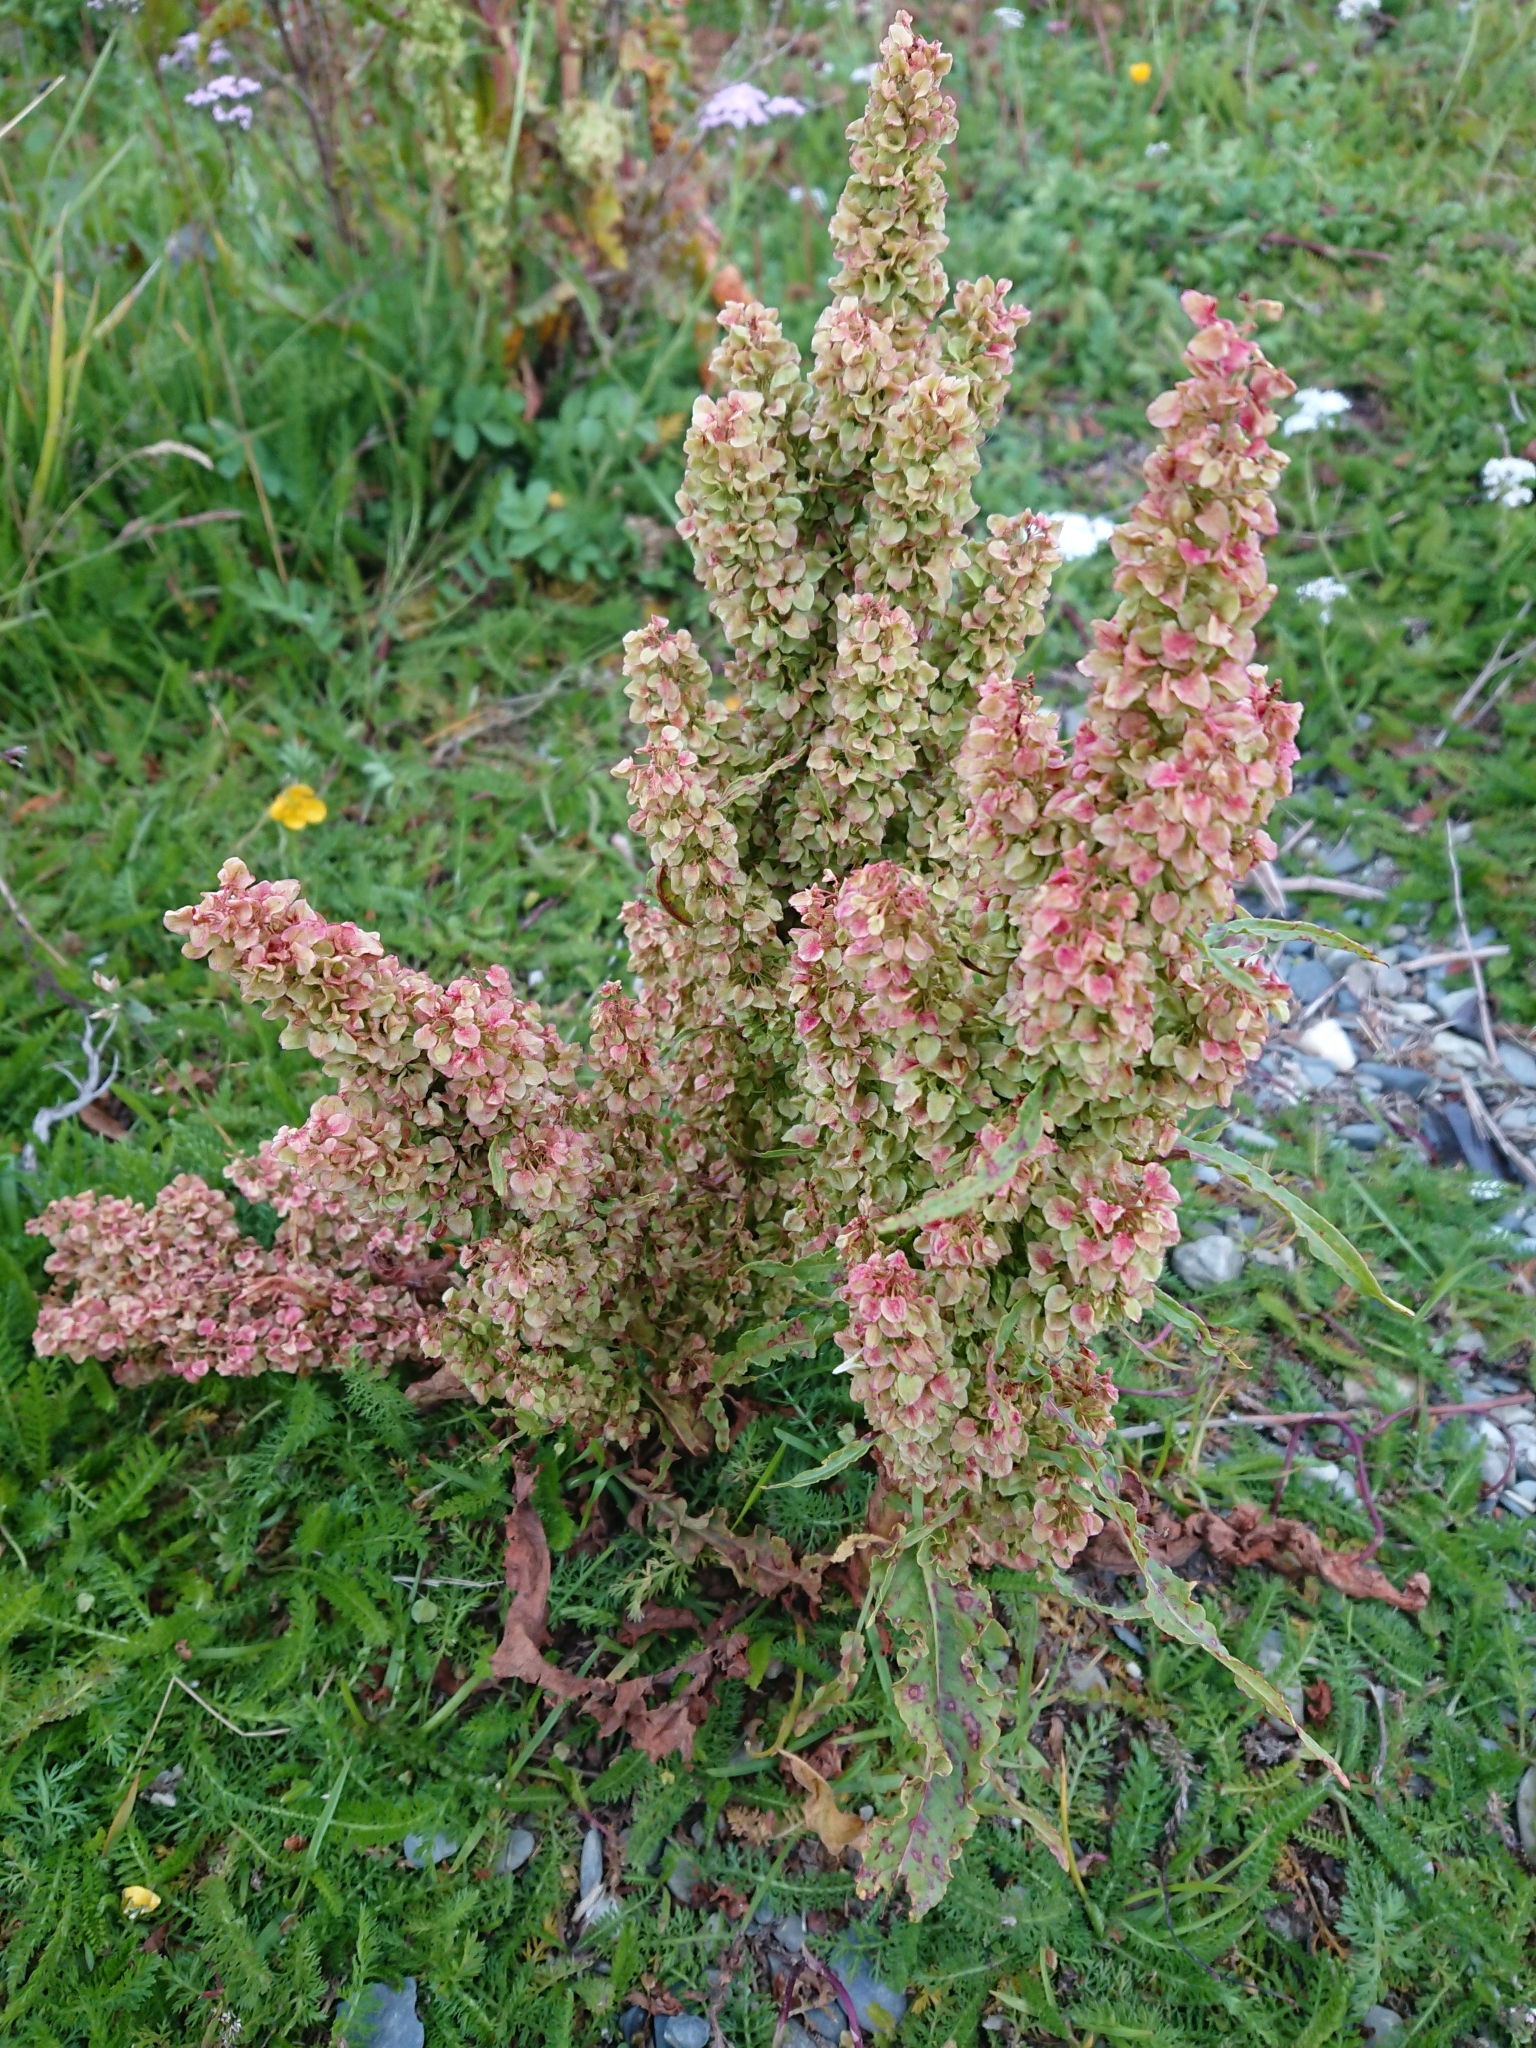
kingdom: Plantae
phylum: Tracheophyta
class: Magnoliopsida
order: Caryophyllales
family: Polygonaceae
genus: Rumex
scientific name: Rumex crispus
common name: Curled dock
